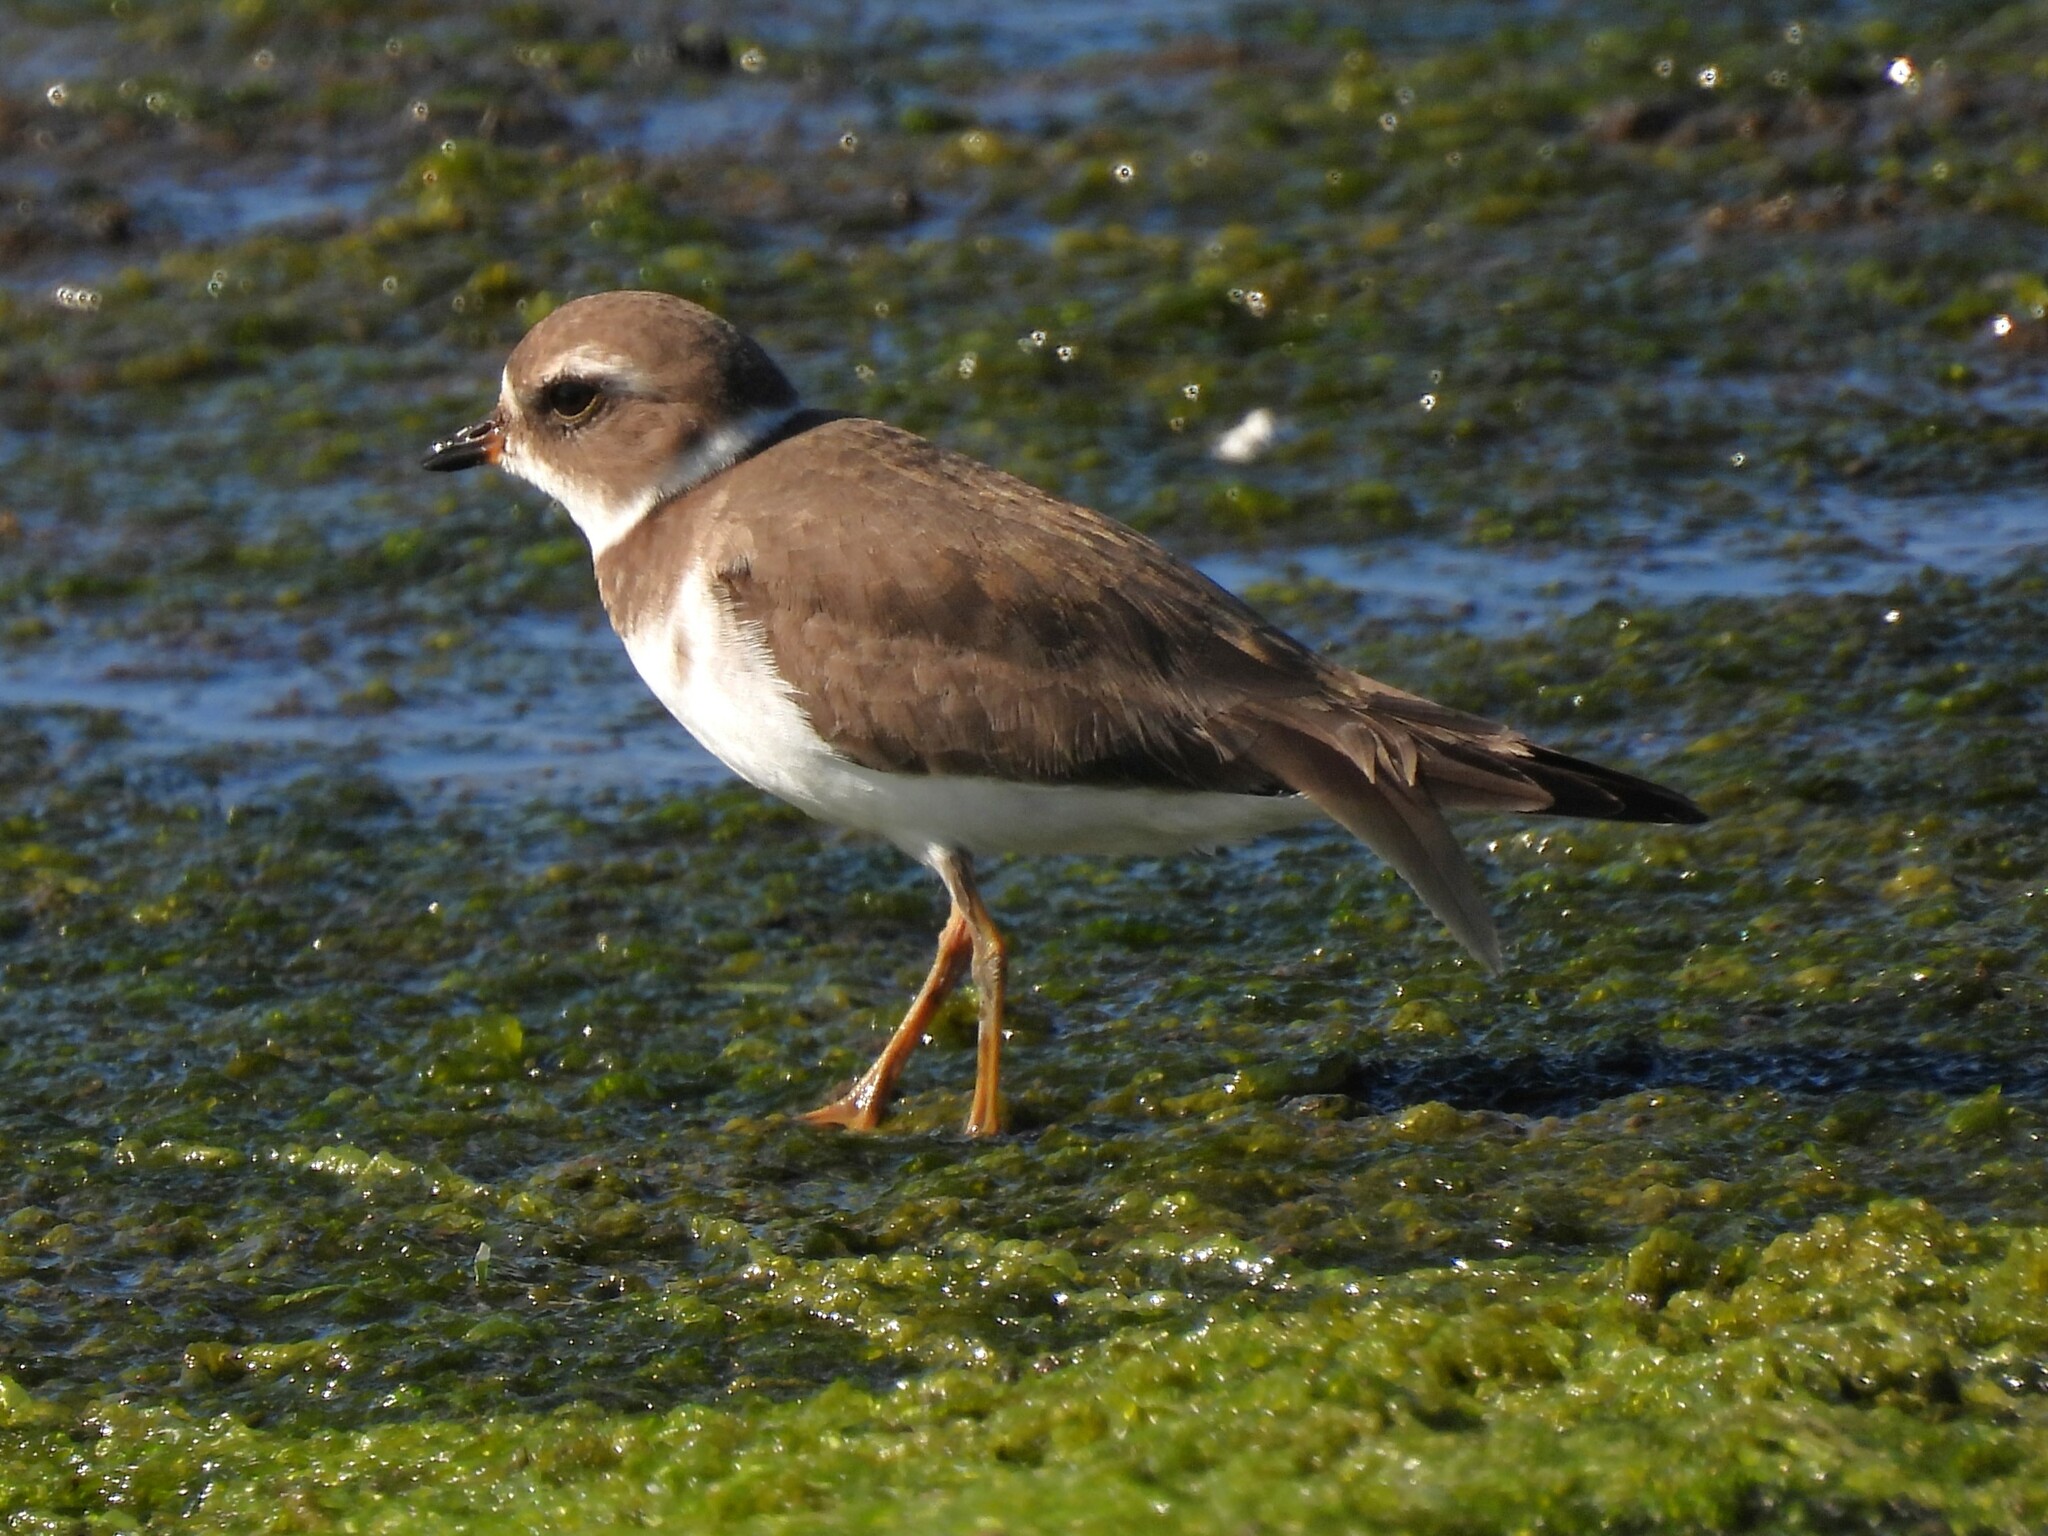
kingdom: Animalia
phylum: Chordata
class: Aves
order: Charadriiformes
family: Charadriidae
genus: Charadrius
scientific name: Charadrius semipalmatus
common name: Semipalmated plover
